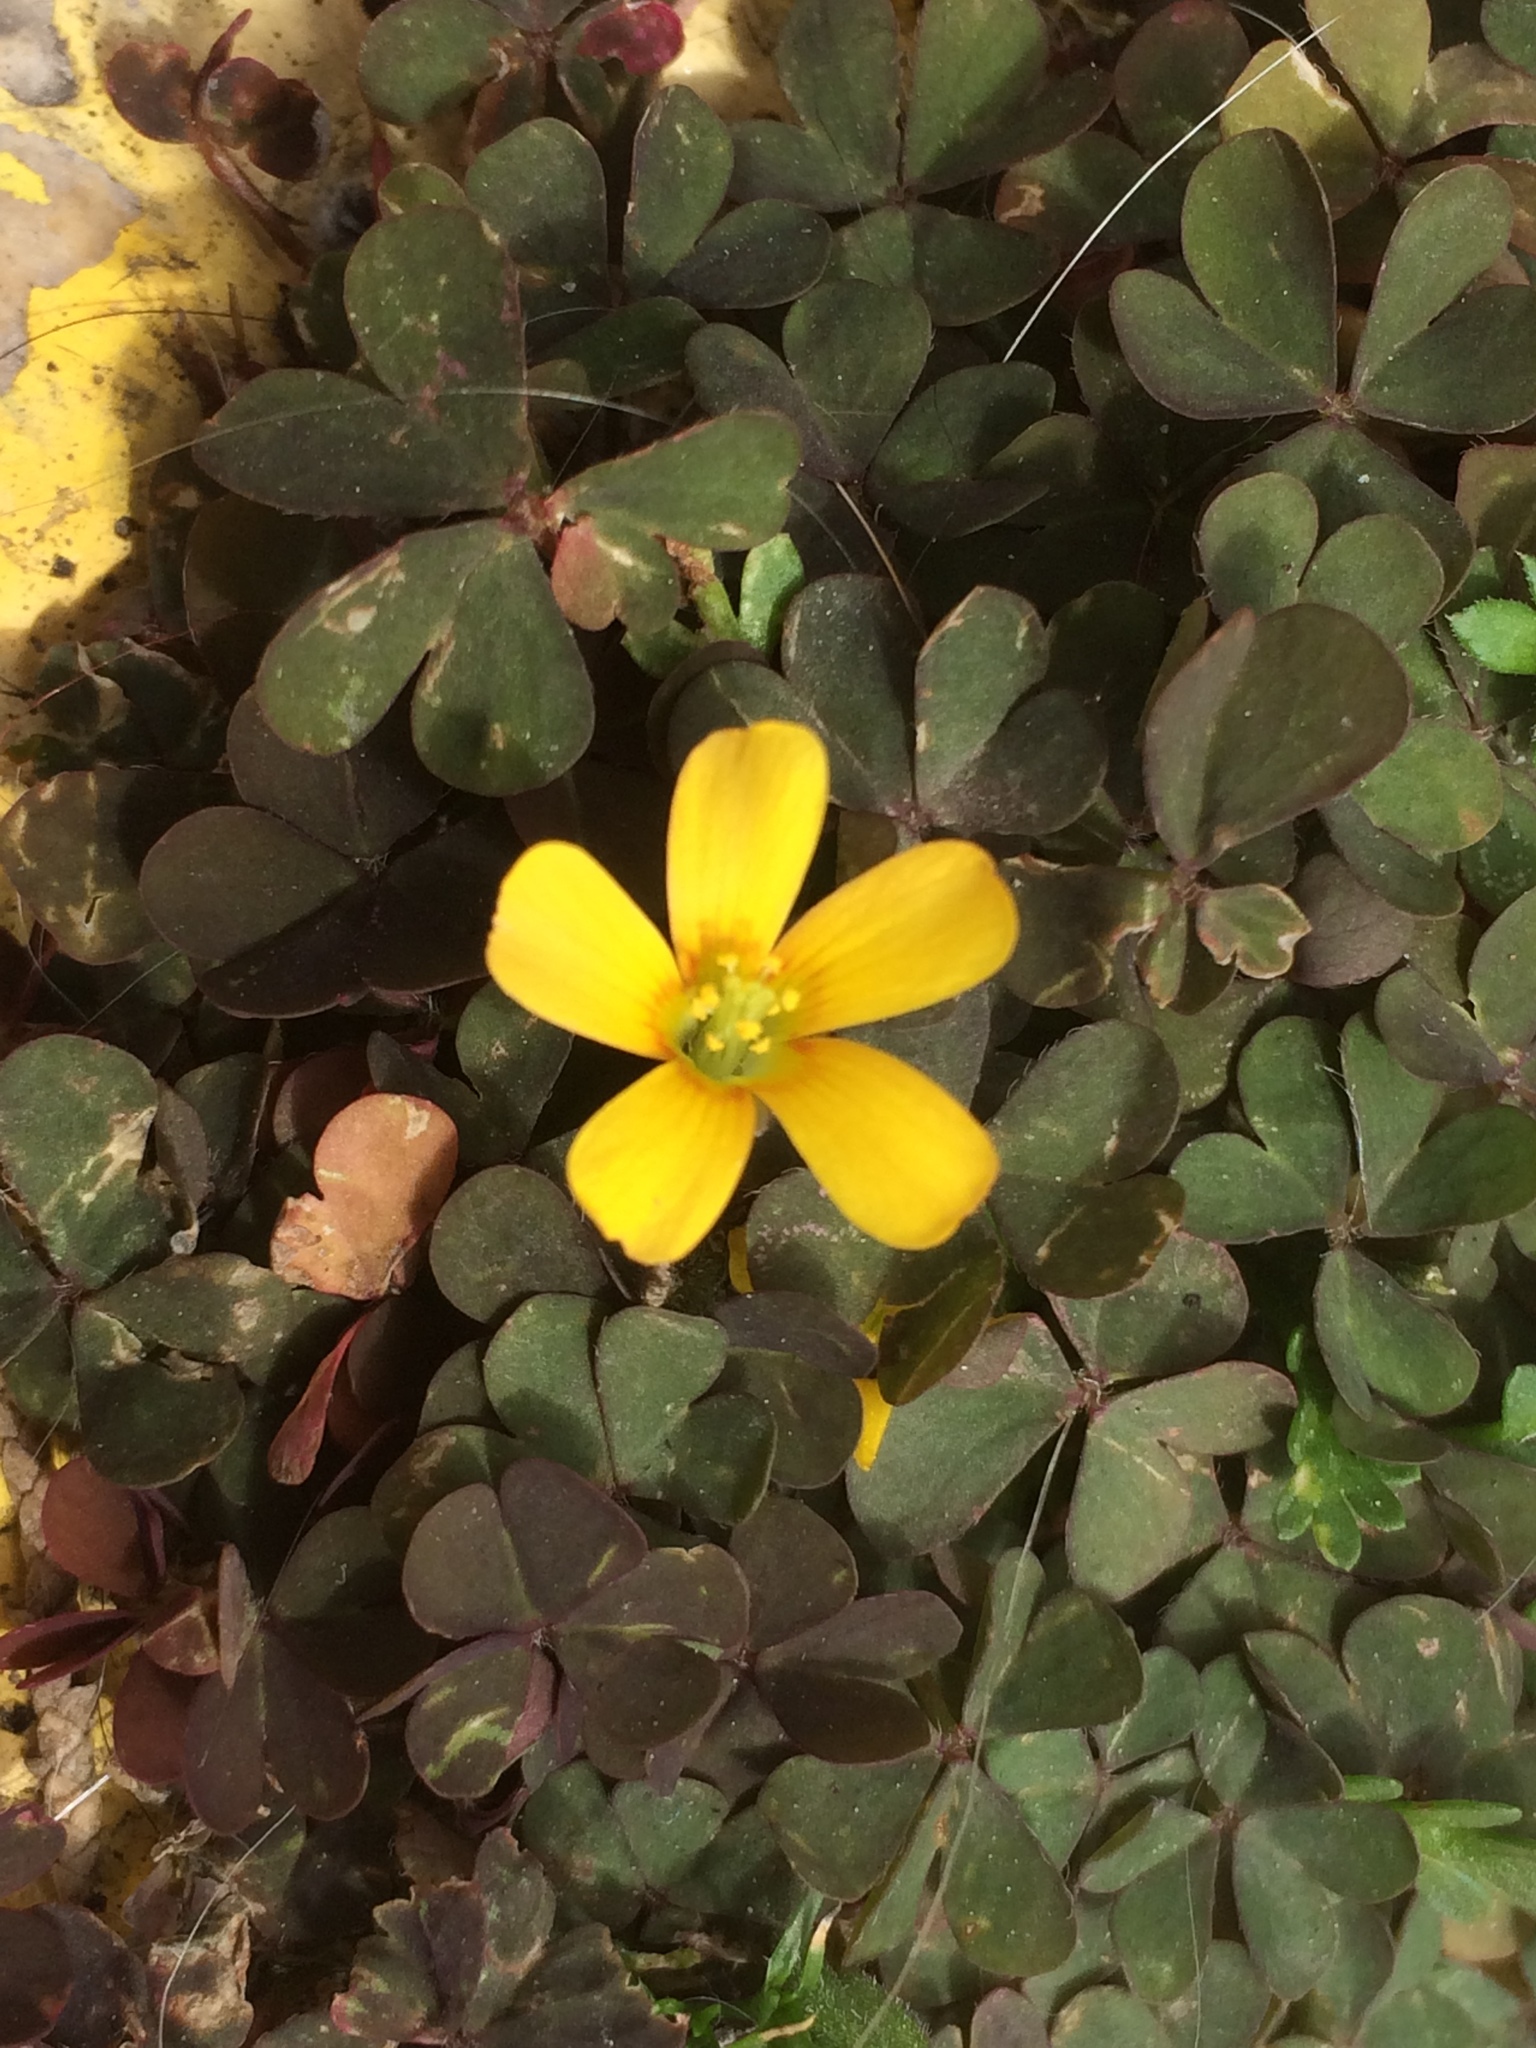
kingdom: Plantae
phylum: Tracheophyta
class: Magnoliopsida
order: Oxalidales
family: Oxalidaceae
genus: Oxalis
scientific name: Oxalis corniculata
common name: Procumbent yellow-sorrel
